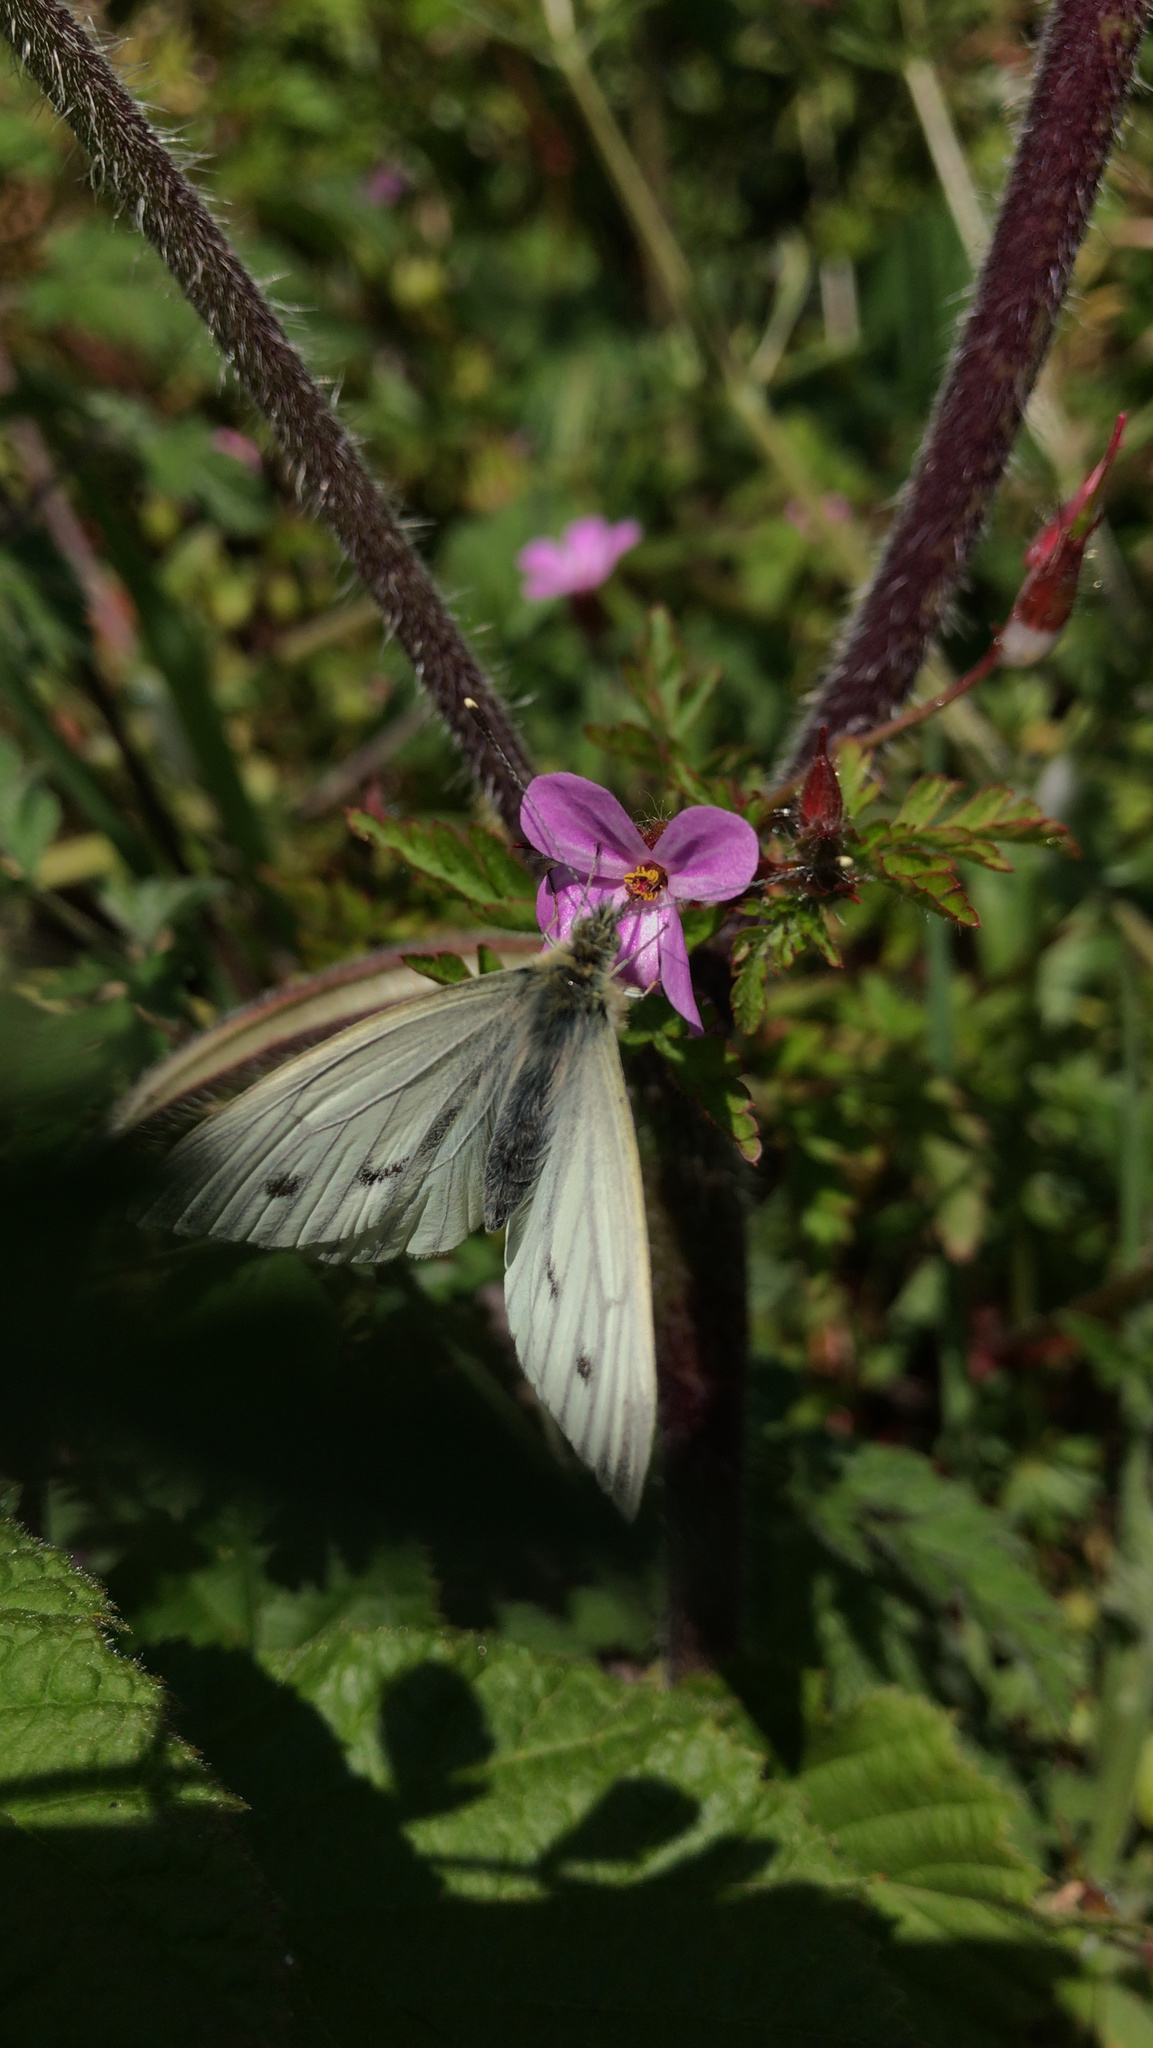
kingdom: Animalia
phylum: Arthropoda
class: Insecta
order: Lepidoptera
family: Pieridae
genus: Pieris
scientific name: Pieris napi
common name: Green-veined white
